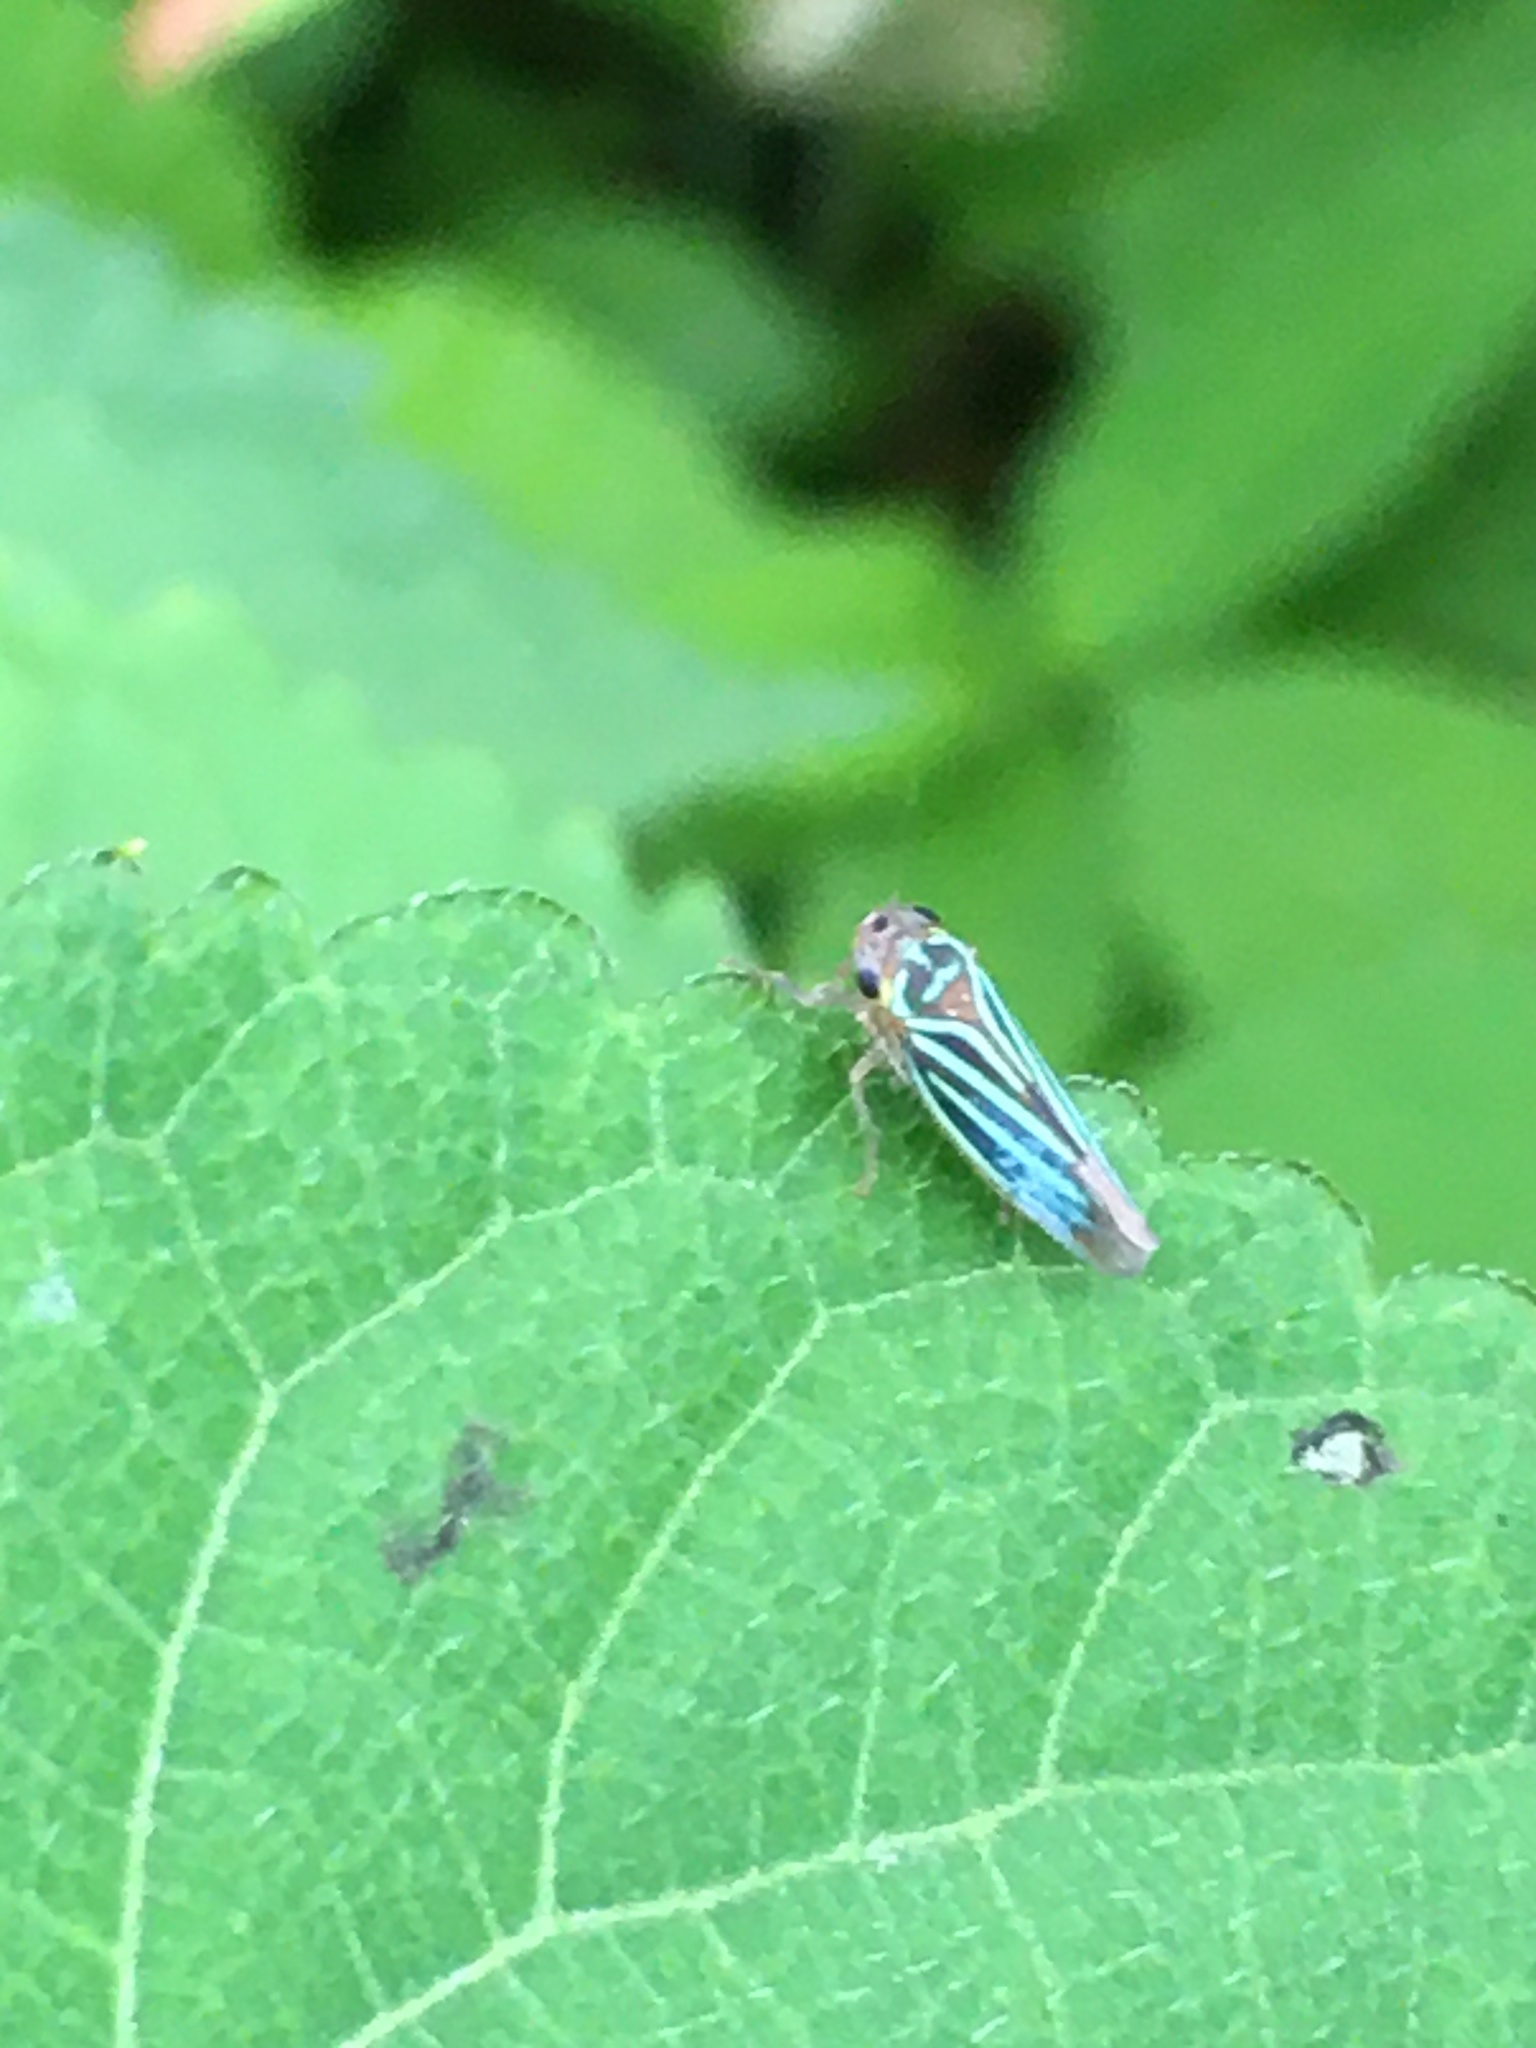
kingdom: Animalia
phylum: Arthropoda
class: Insecta
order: Hemiptera
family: Cicadellidae
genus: Chlorogonalia
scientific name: Chlorogonalia coeruleovittata
